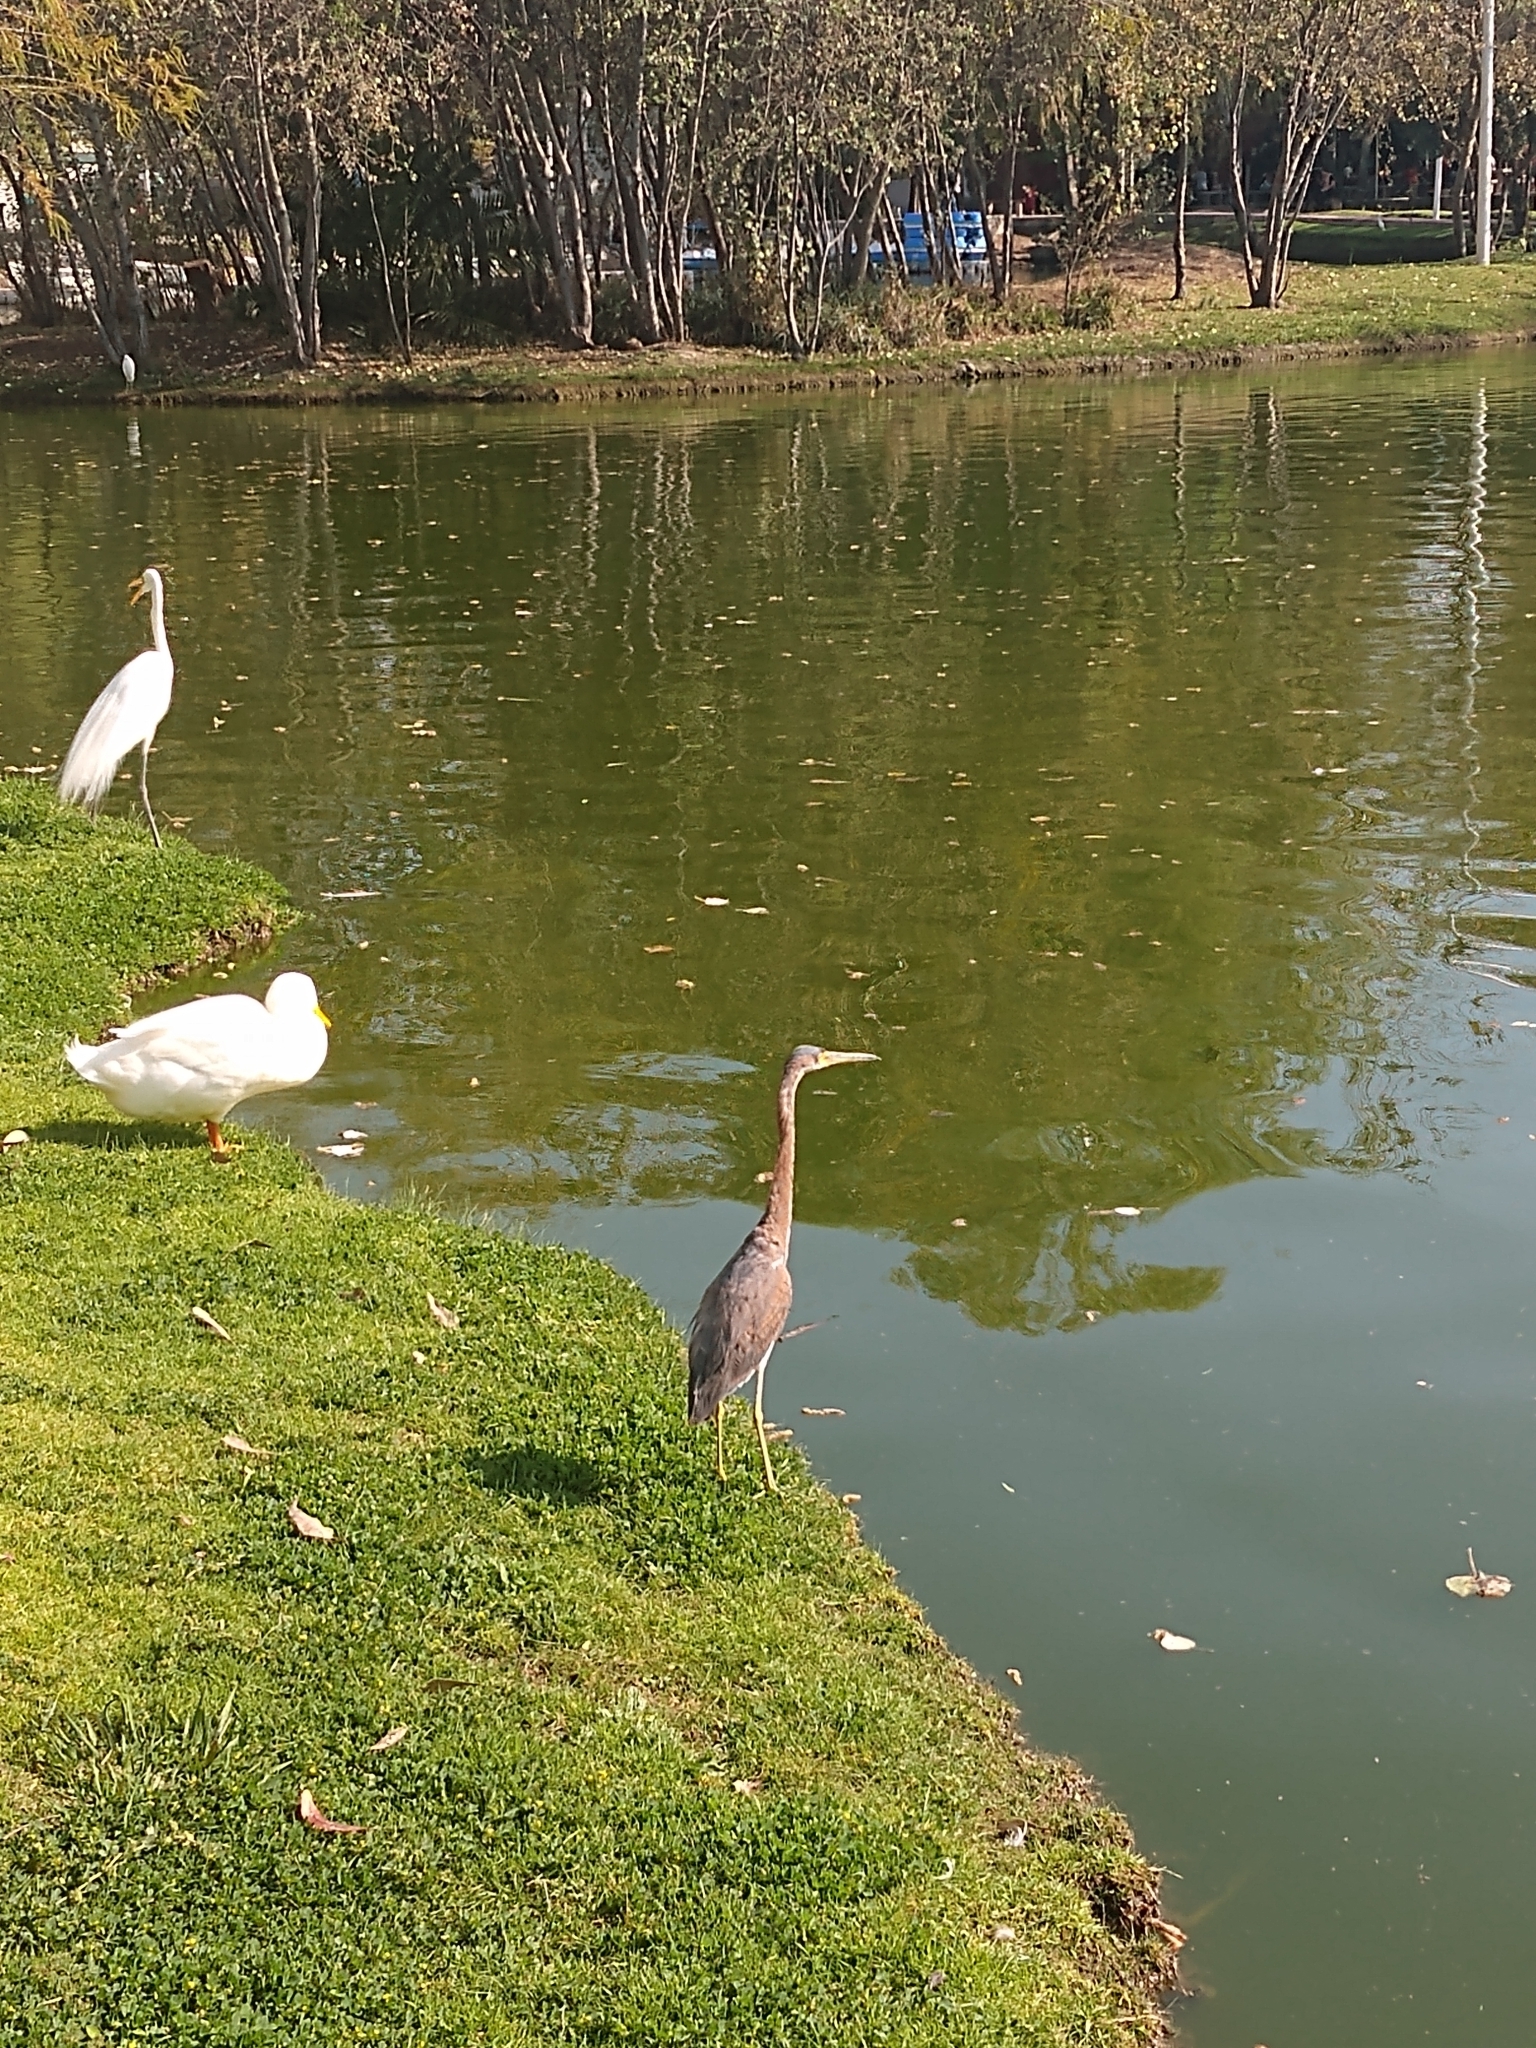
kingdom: Animalia
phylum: Chordata
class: Aves
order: Pelecaniformes
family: Ardeidae
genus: Egretta
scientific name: Egretta tricolor
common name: Tricolored heron
